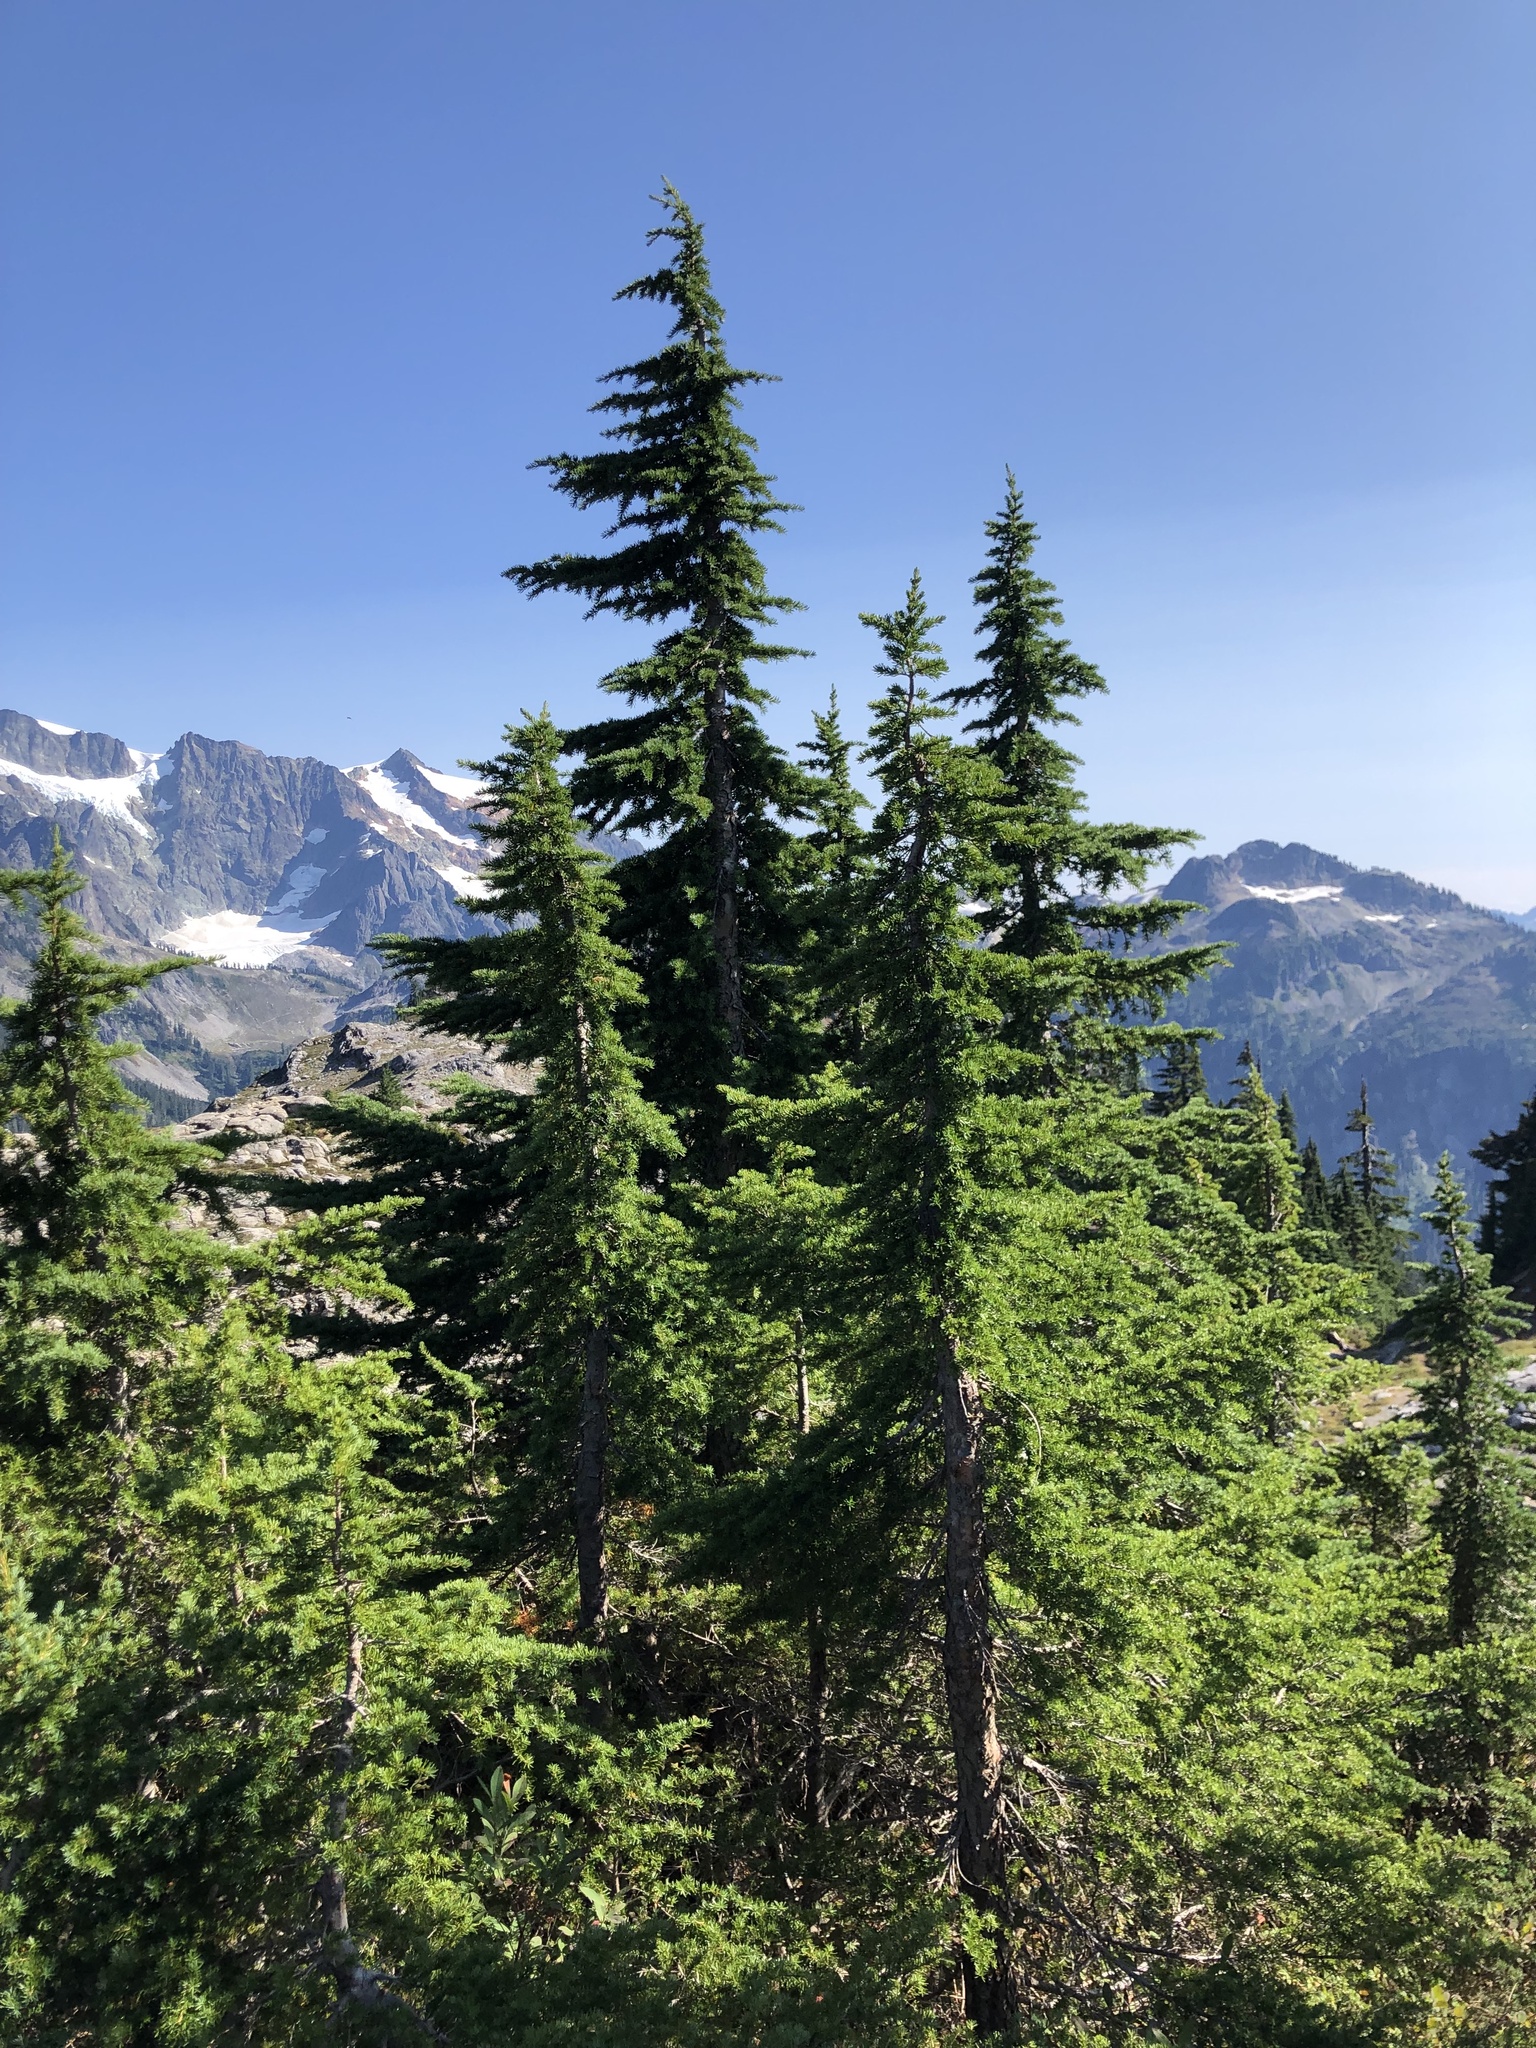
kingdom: Plantae
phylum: Tracheophyta
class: Pinopsida
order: Pinales
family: Pinaceae
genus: Tsuga
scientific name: Tsuga mertensiana
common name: Mountain hemlock
